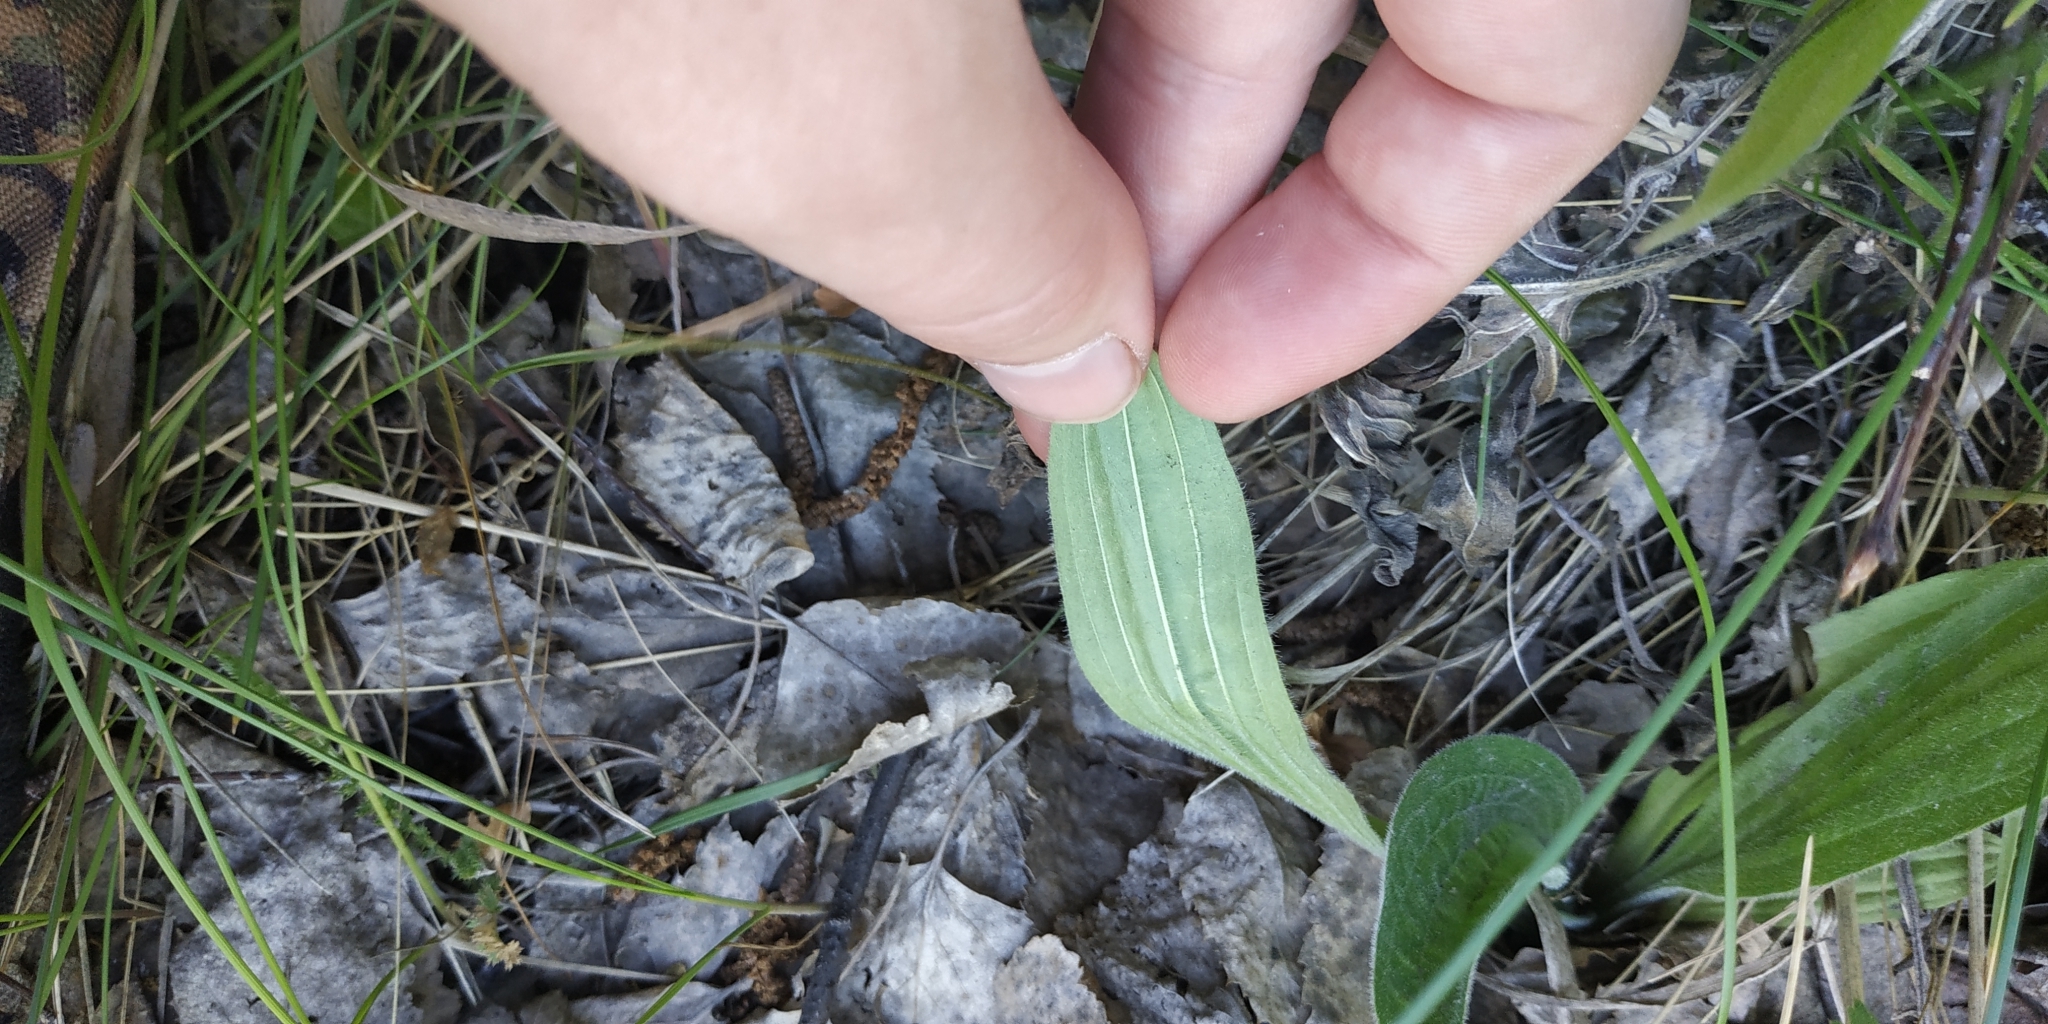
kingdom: Plantae
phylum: Tracheophyta
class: Magnoliopsida
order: Lamiales
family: Plantaginaceae
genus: Plantago
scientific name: Plantago media
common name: Hoary plantain
